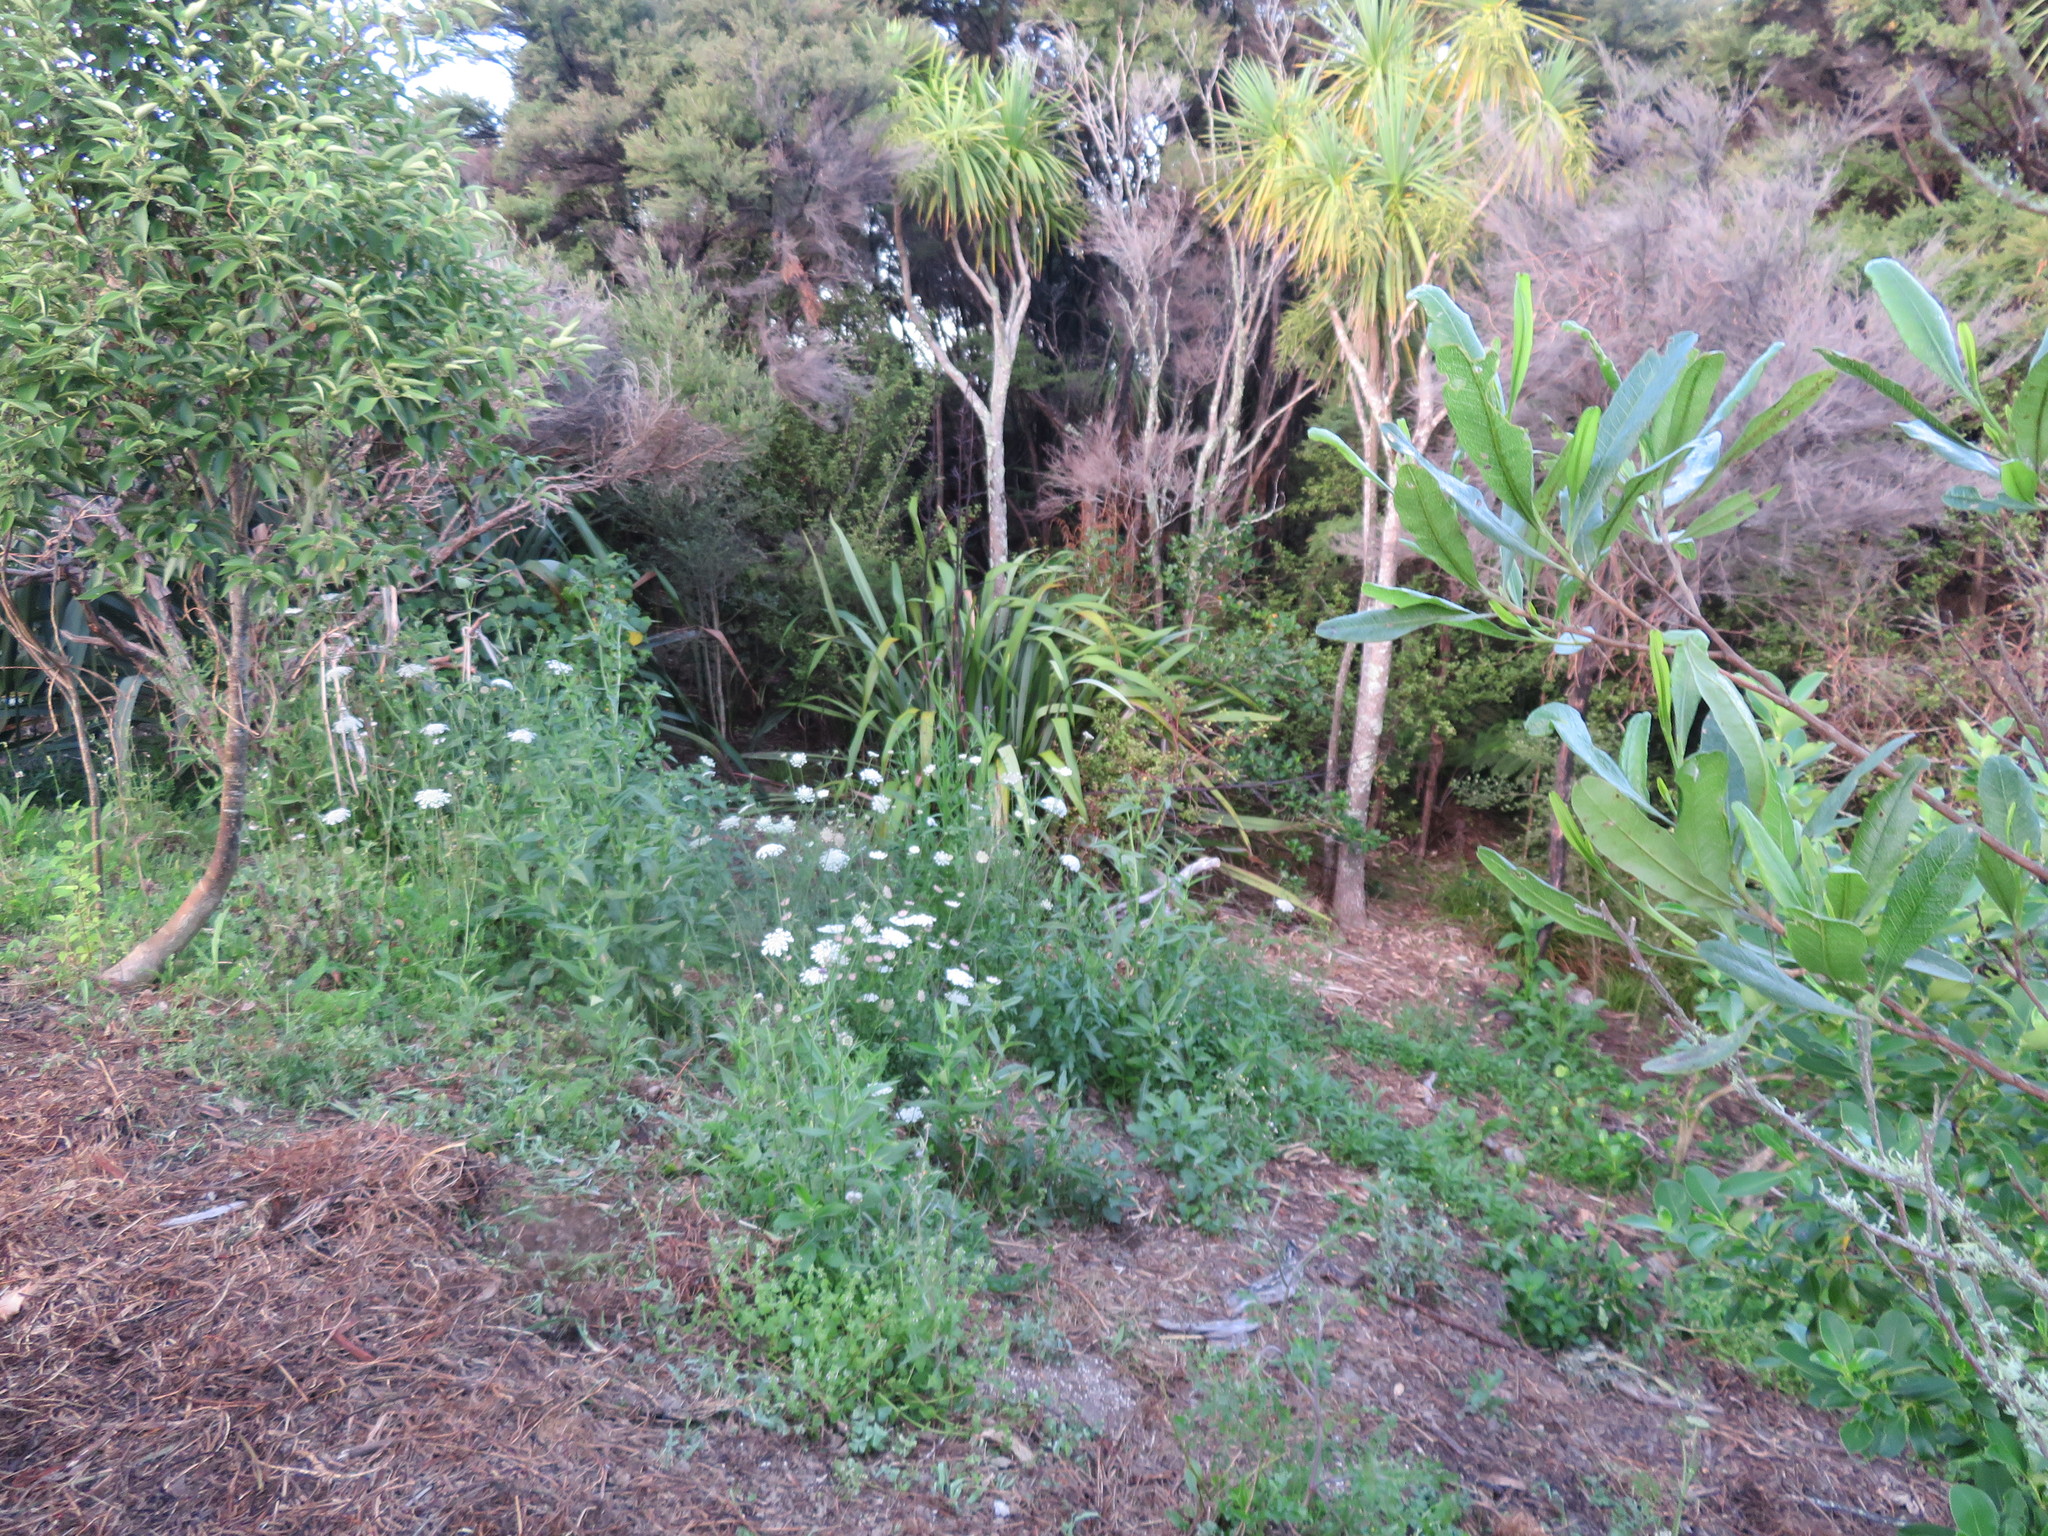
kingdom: Plantae
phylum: Tracheophyta
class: Magnoliopsida
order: Sapindales
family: Sapindaceae
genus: Dodonaea
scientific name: Dodonaea viscosa
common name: Hopbush
